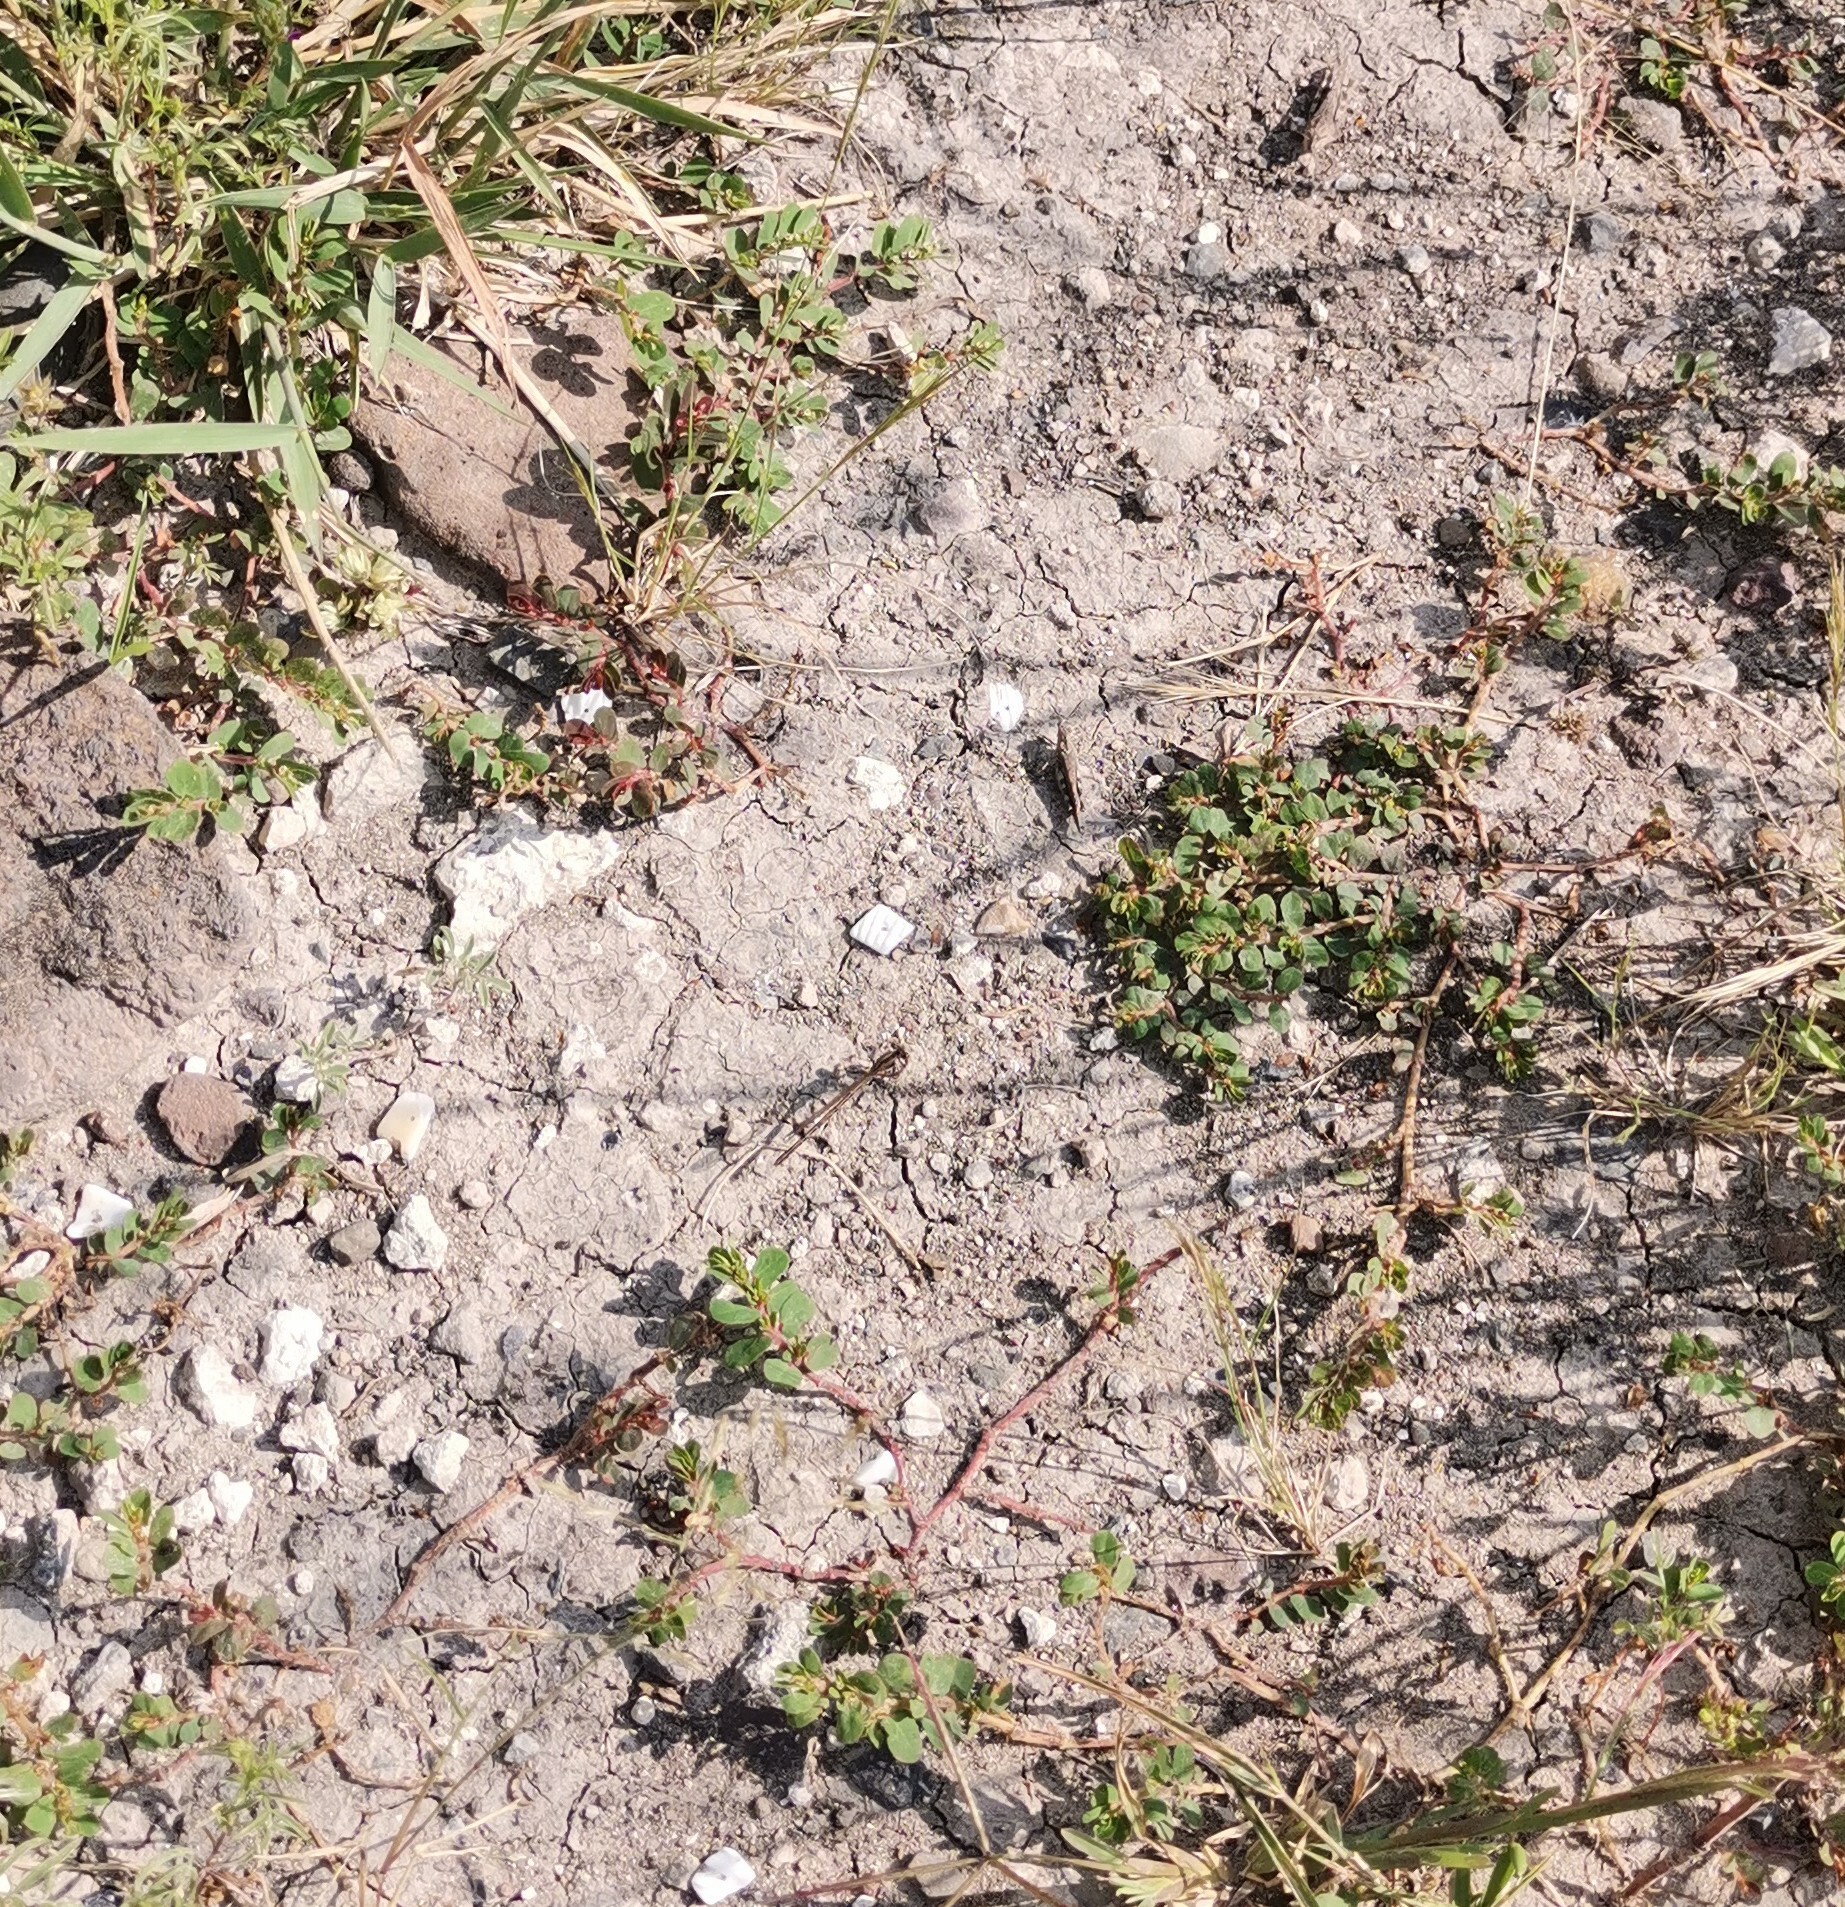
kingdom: Plantae
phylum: Tracheophyta
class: Magnoliopsida
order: Caryophyllales
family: Portulacaceae
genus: Portulaca
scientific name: Portulaca oleracea
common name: Common purslane
